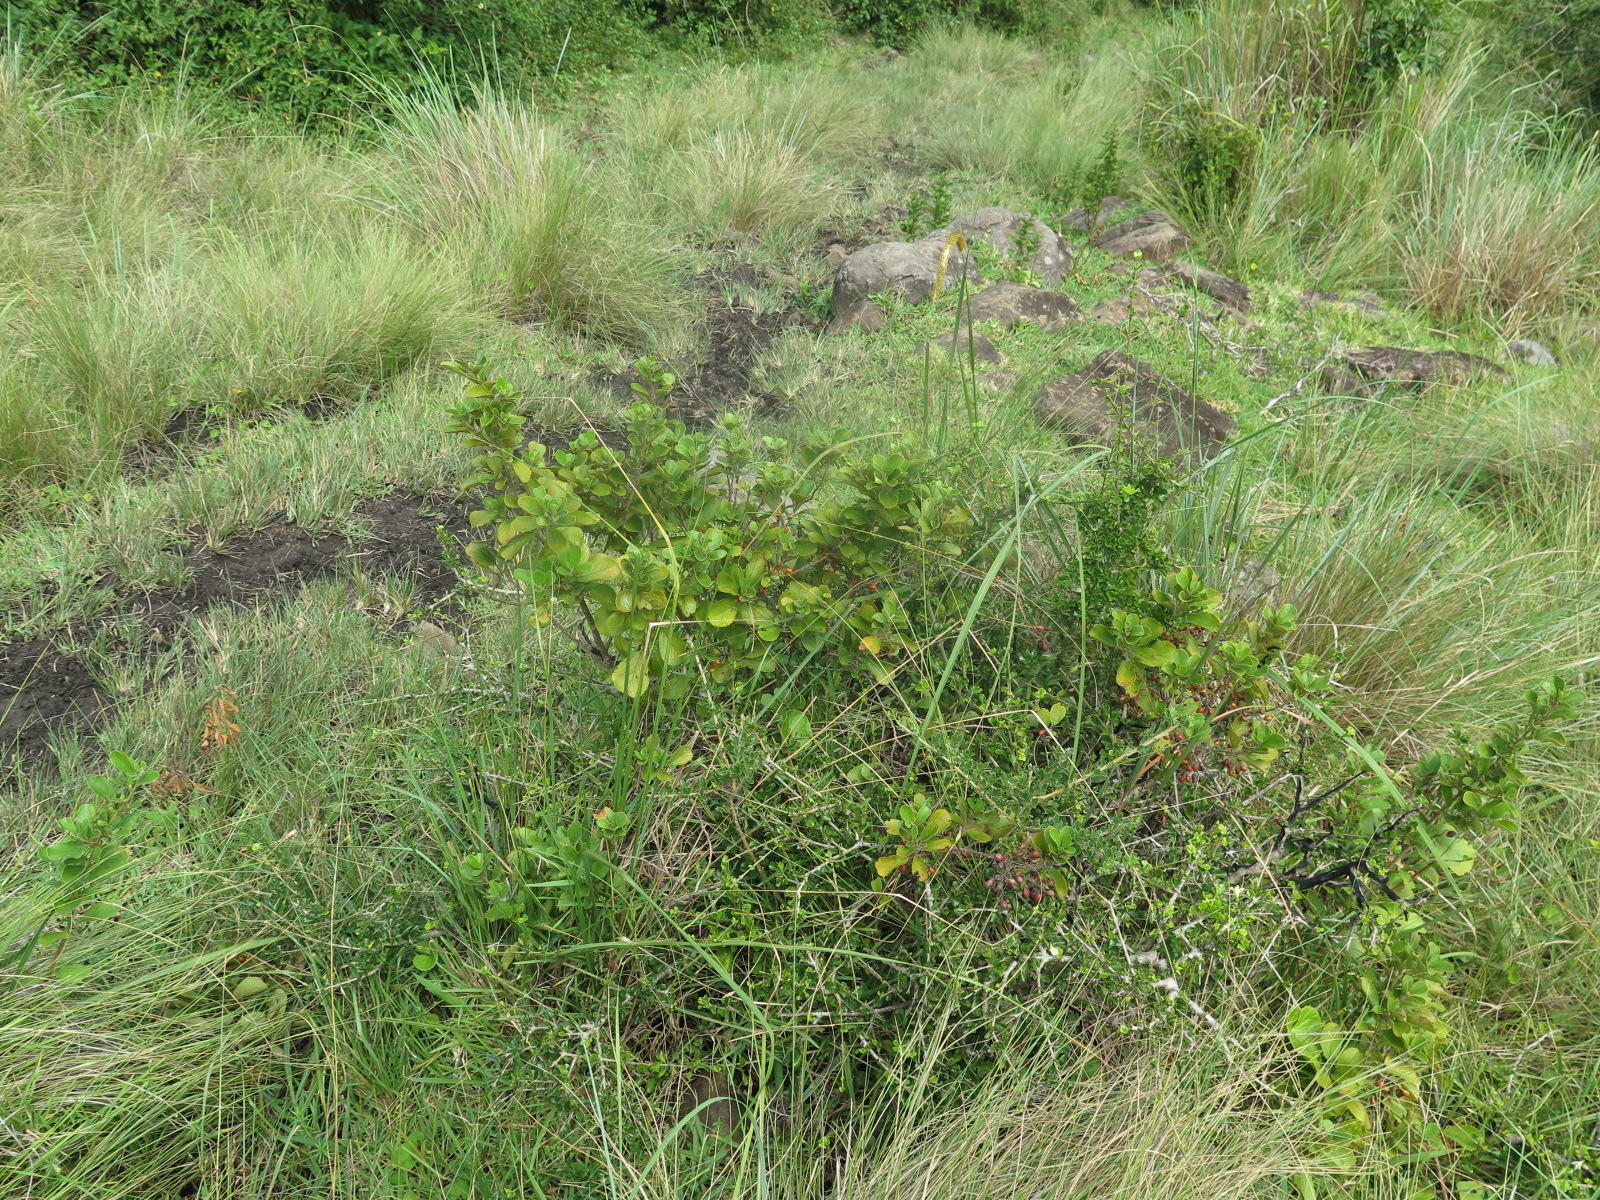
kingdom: Plantae
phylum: Tracheophyta
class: Magnoliopsida
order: Ericales
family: Primulaceae
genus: Maesa
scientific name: Maesa alnifolia
